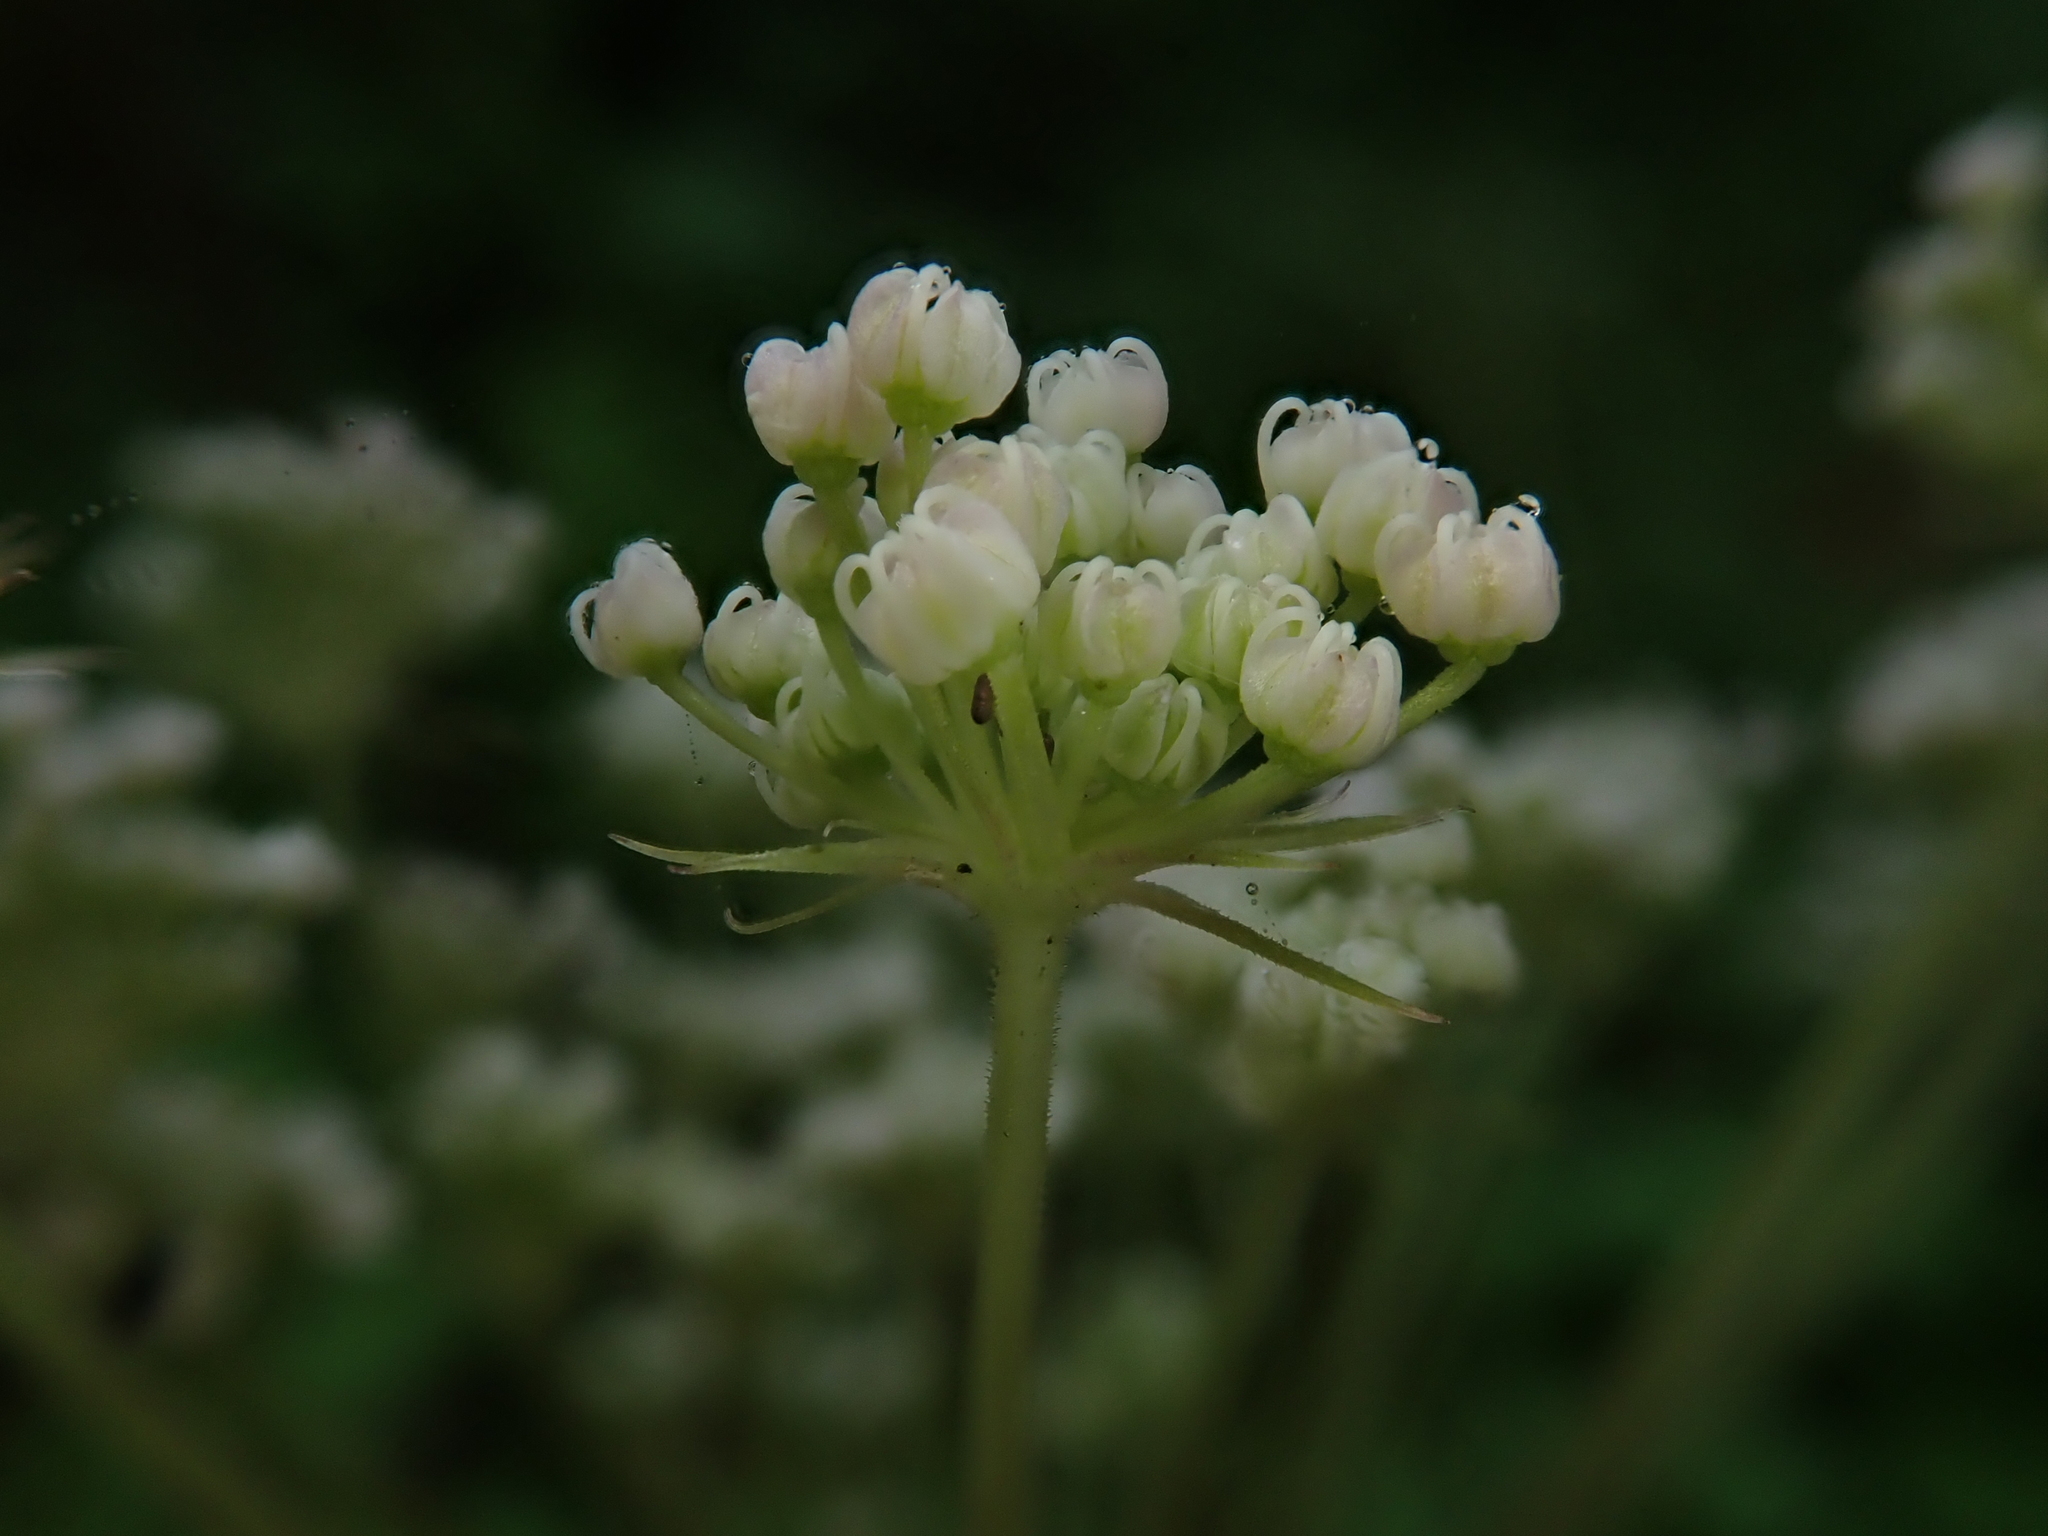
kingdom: Plantae
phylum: Tracheophyta
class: Magnoliopsida
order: Apiales
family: Apiaceae
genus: Angelica
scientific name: Angelica sylvestris
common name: Wild angelica
